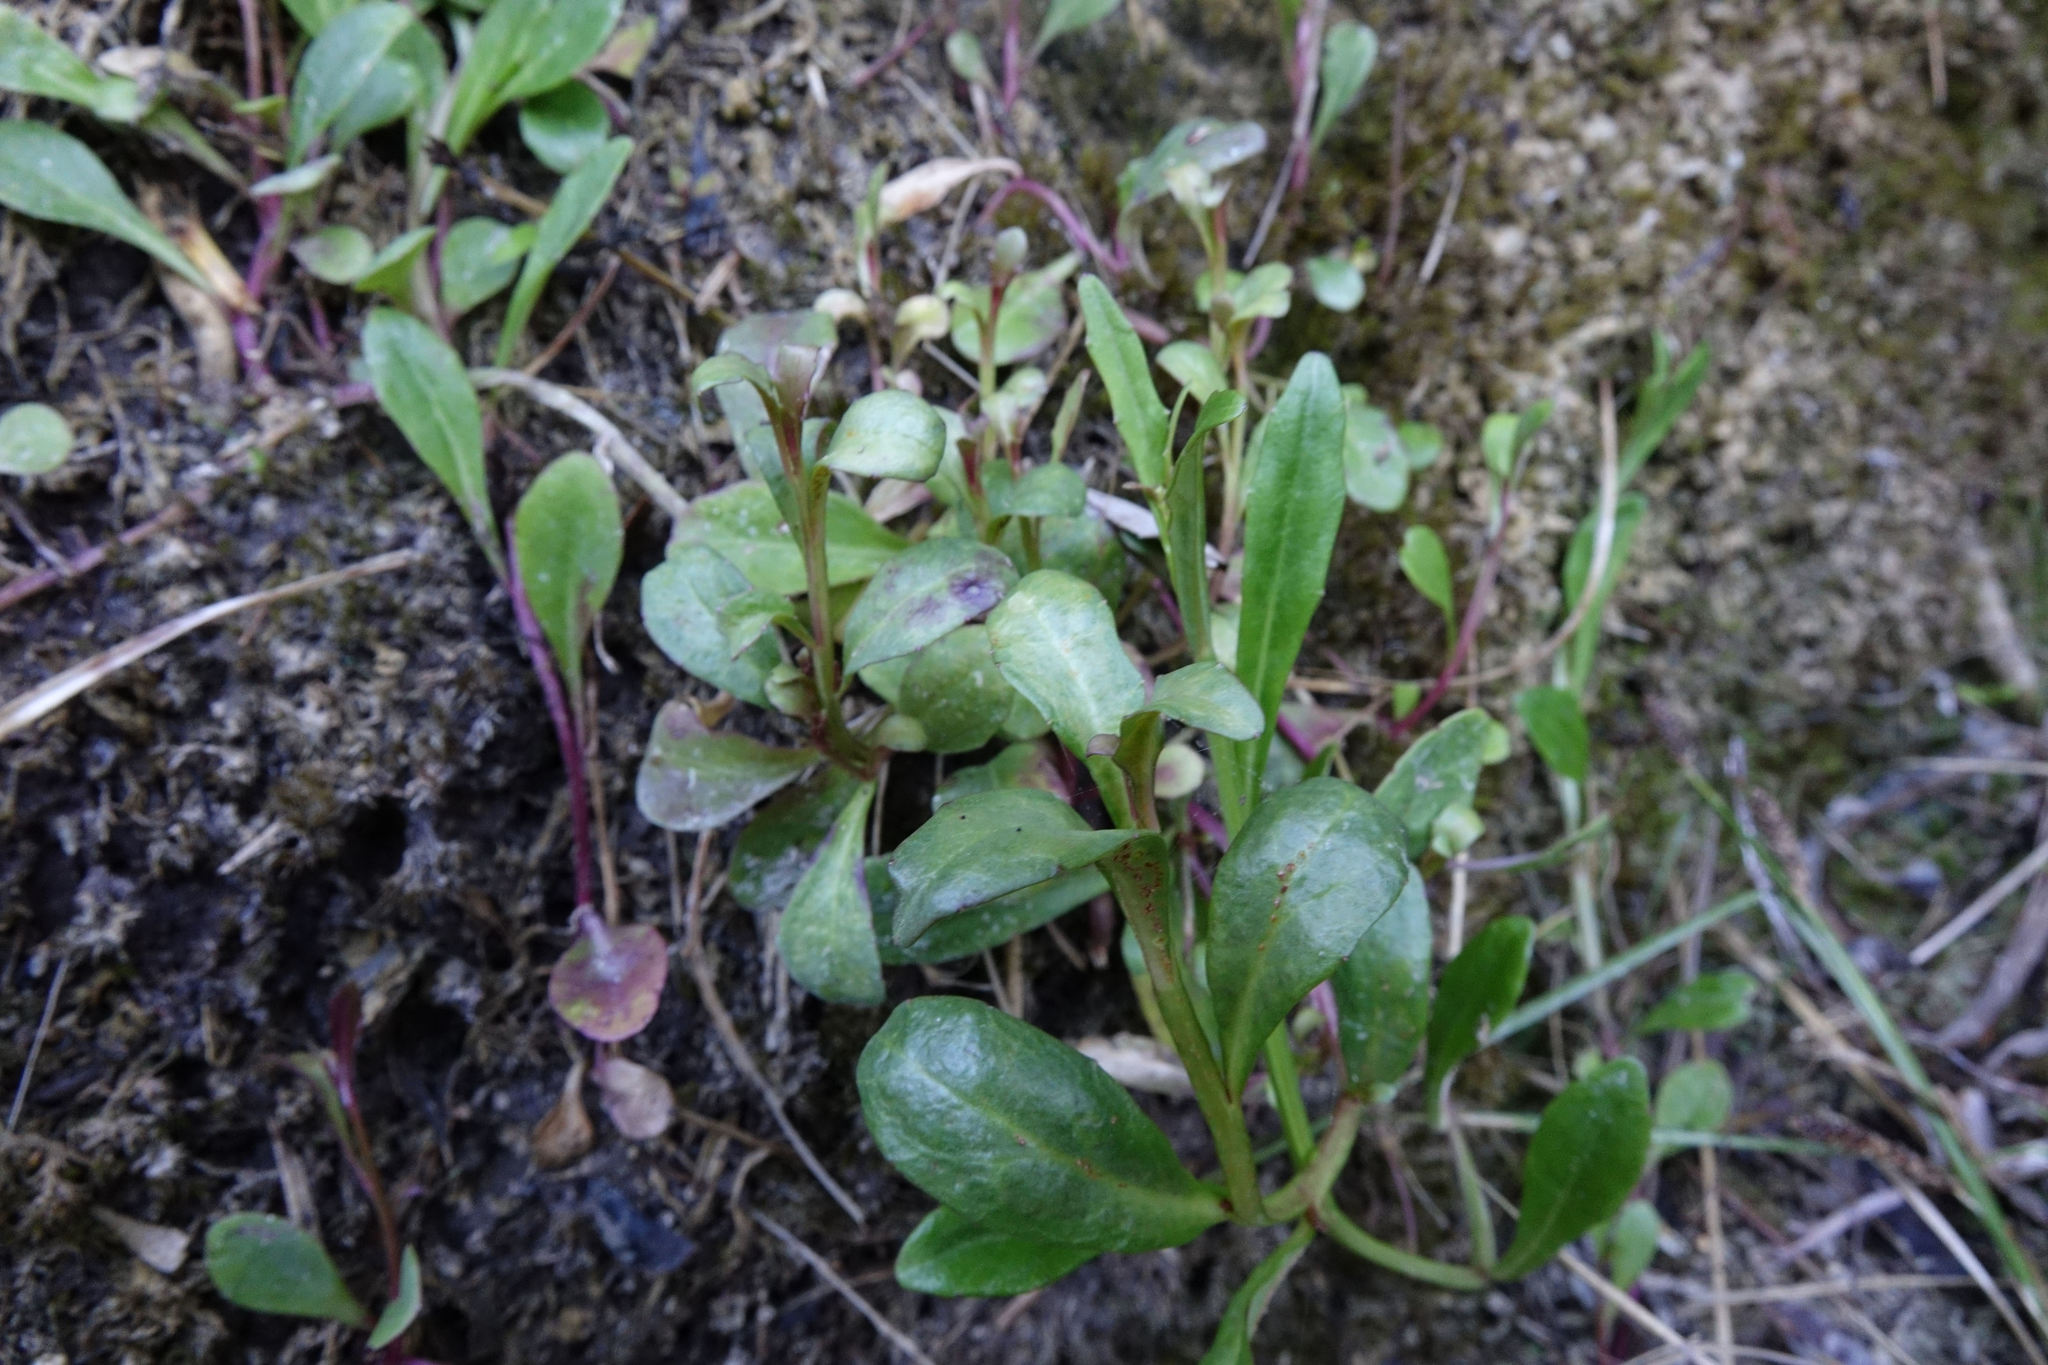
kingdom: Plantae
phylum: Tracheophyta
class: Magnoliopsida
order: Asterales
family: Campanulaceae
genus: Lobelia
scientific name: Lobelia anceps
